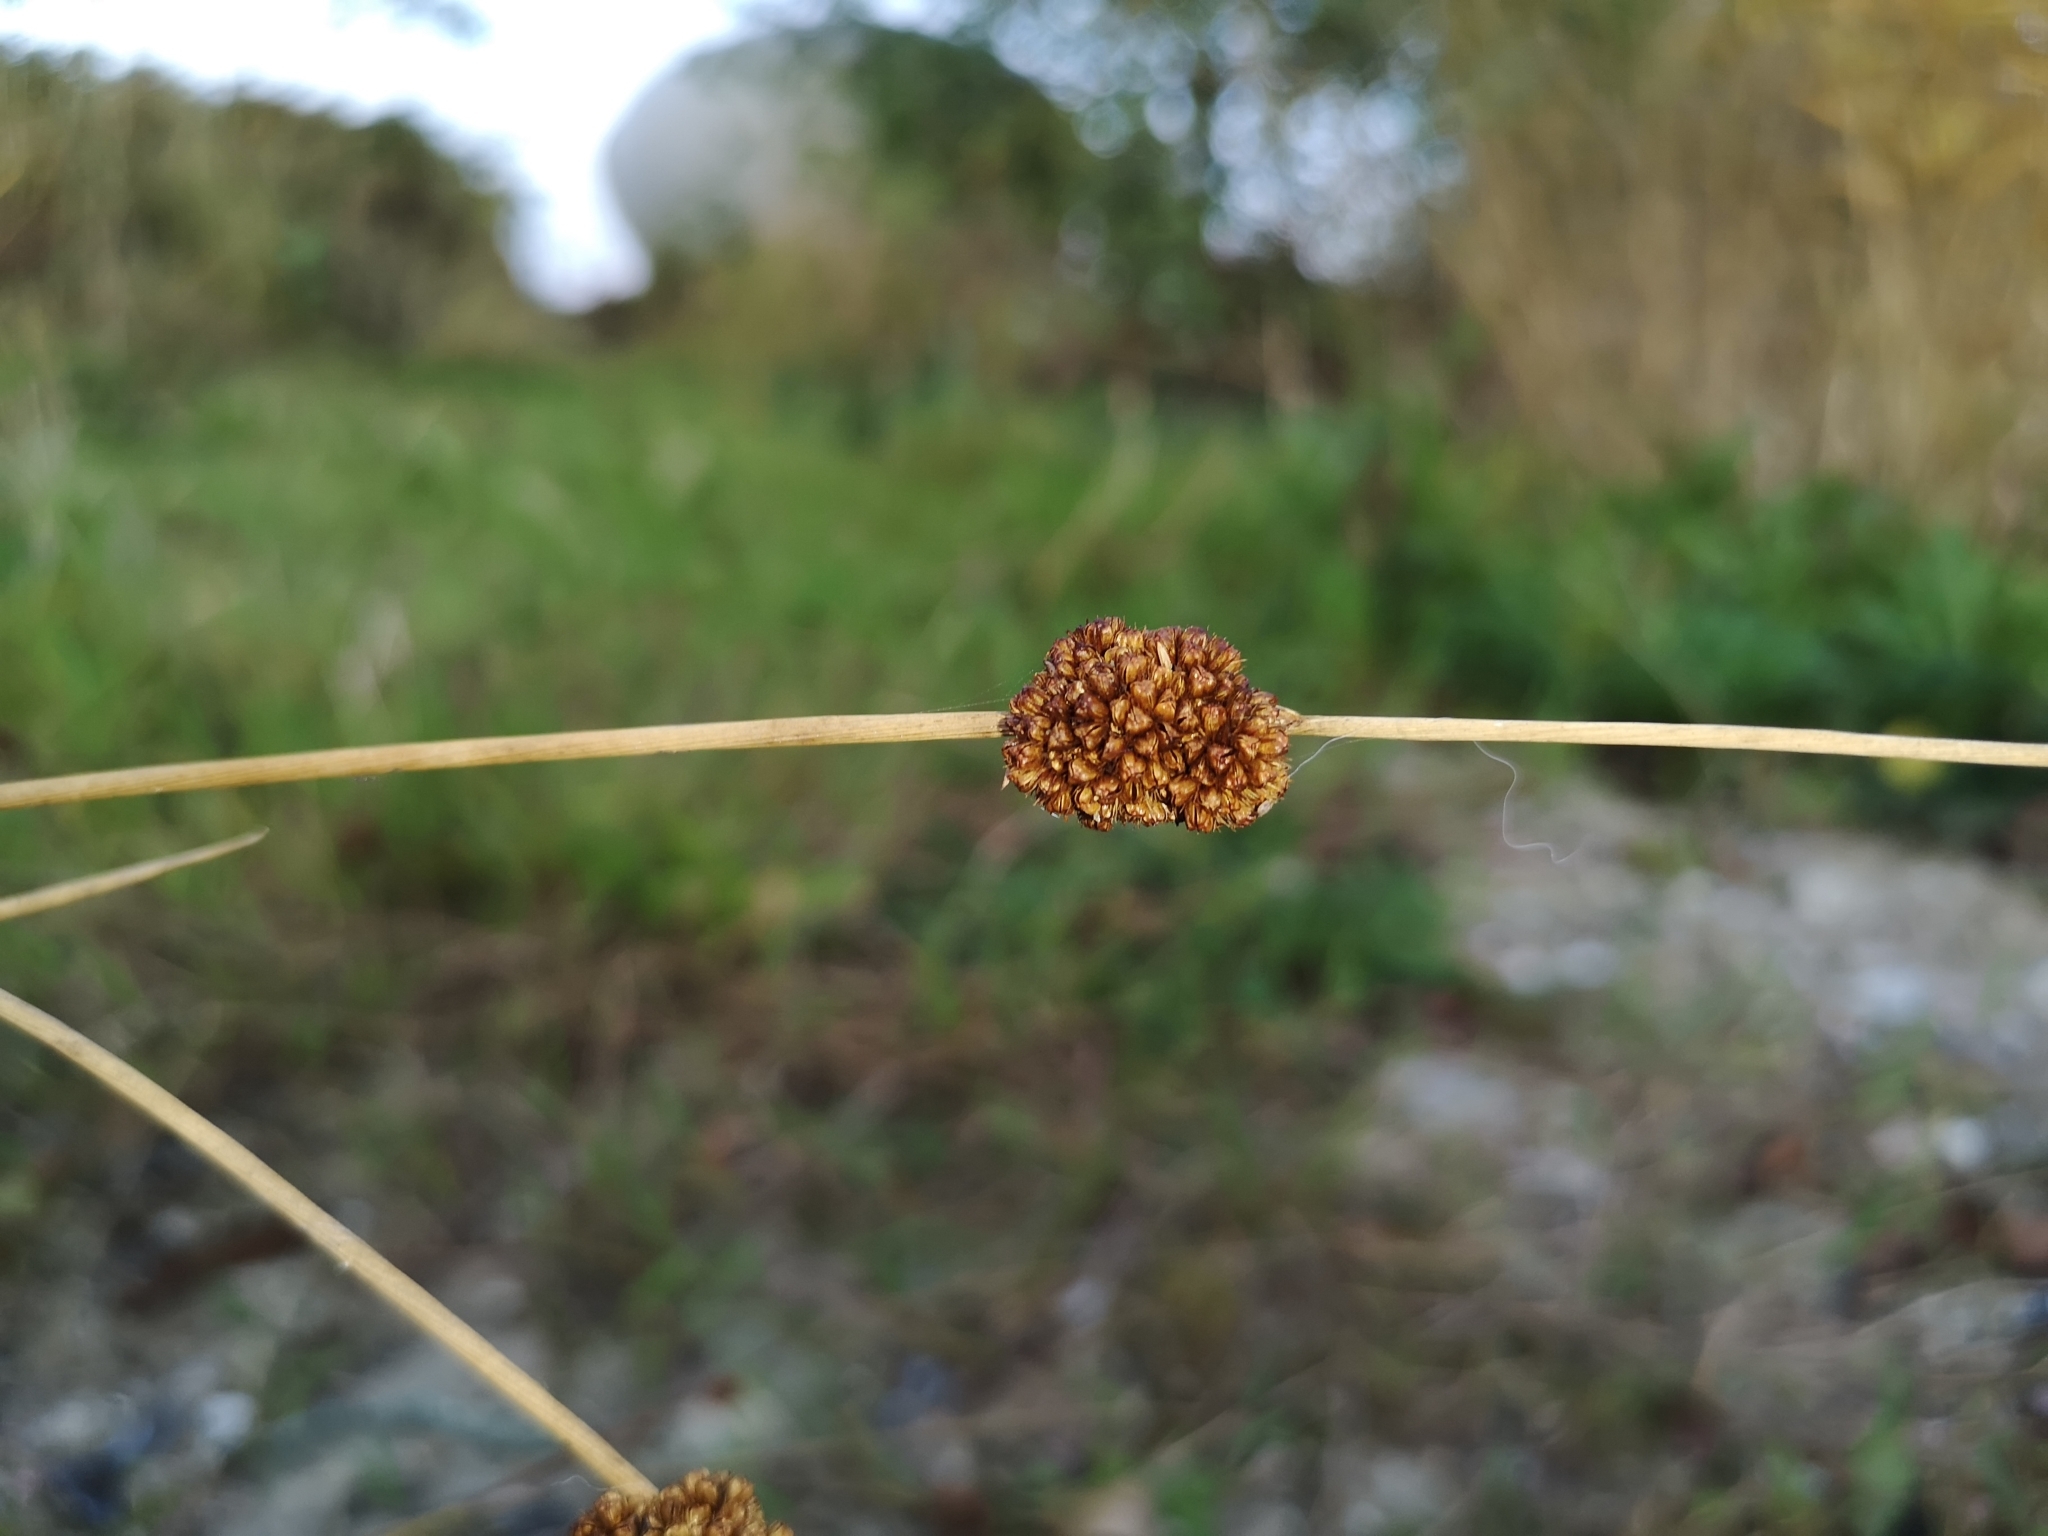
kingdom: Plantae
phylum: Tracheophyta
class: Liliopsida
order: Poales
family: Juncaceae
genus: Juncus
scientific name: Juncus conglomeratus
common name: Compact rush
